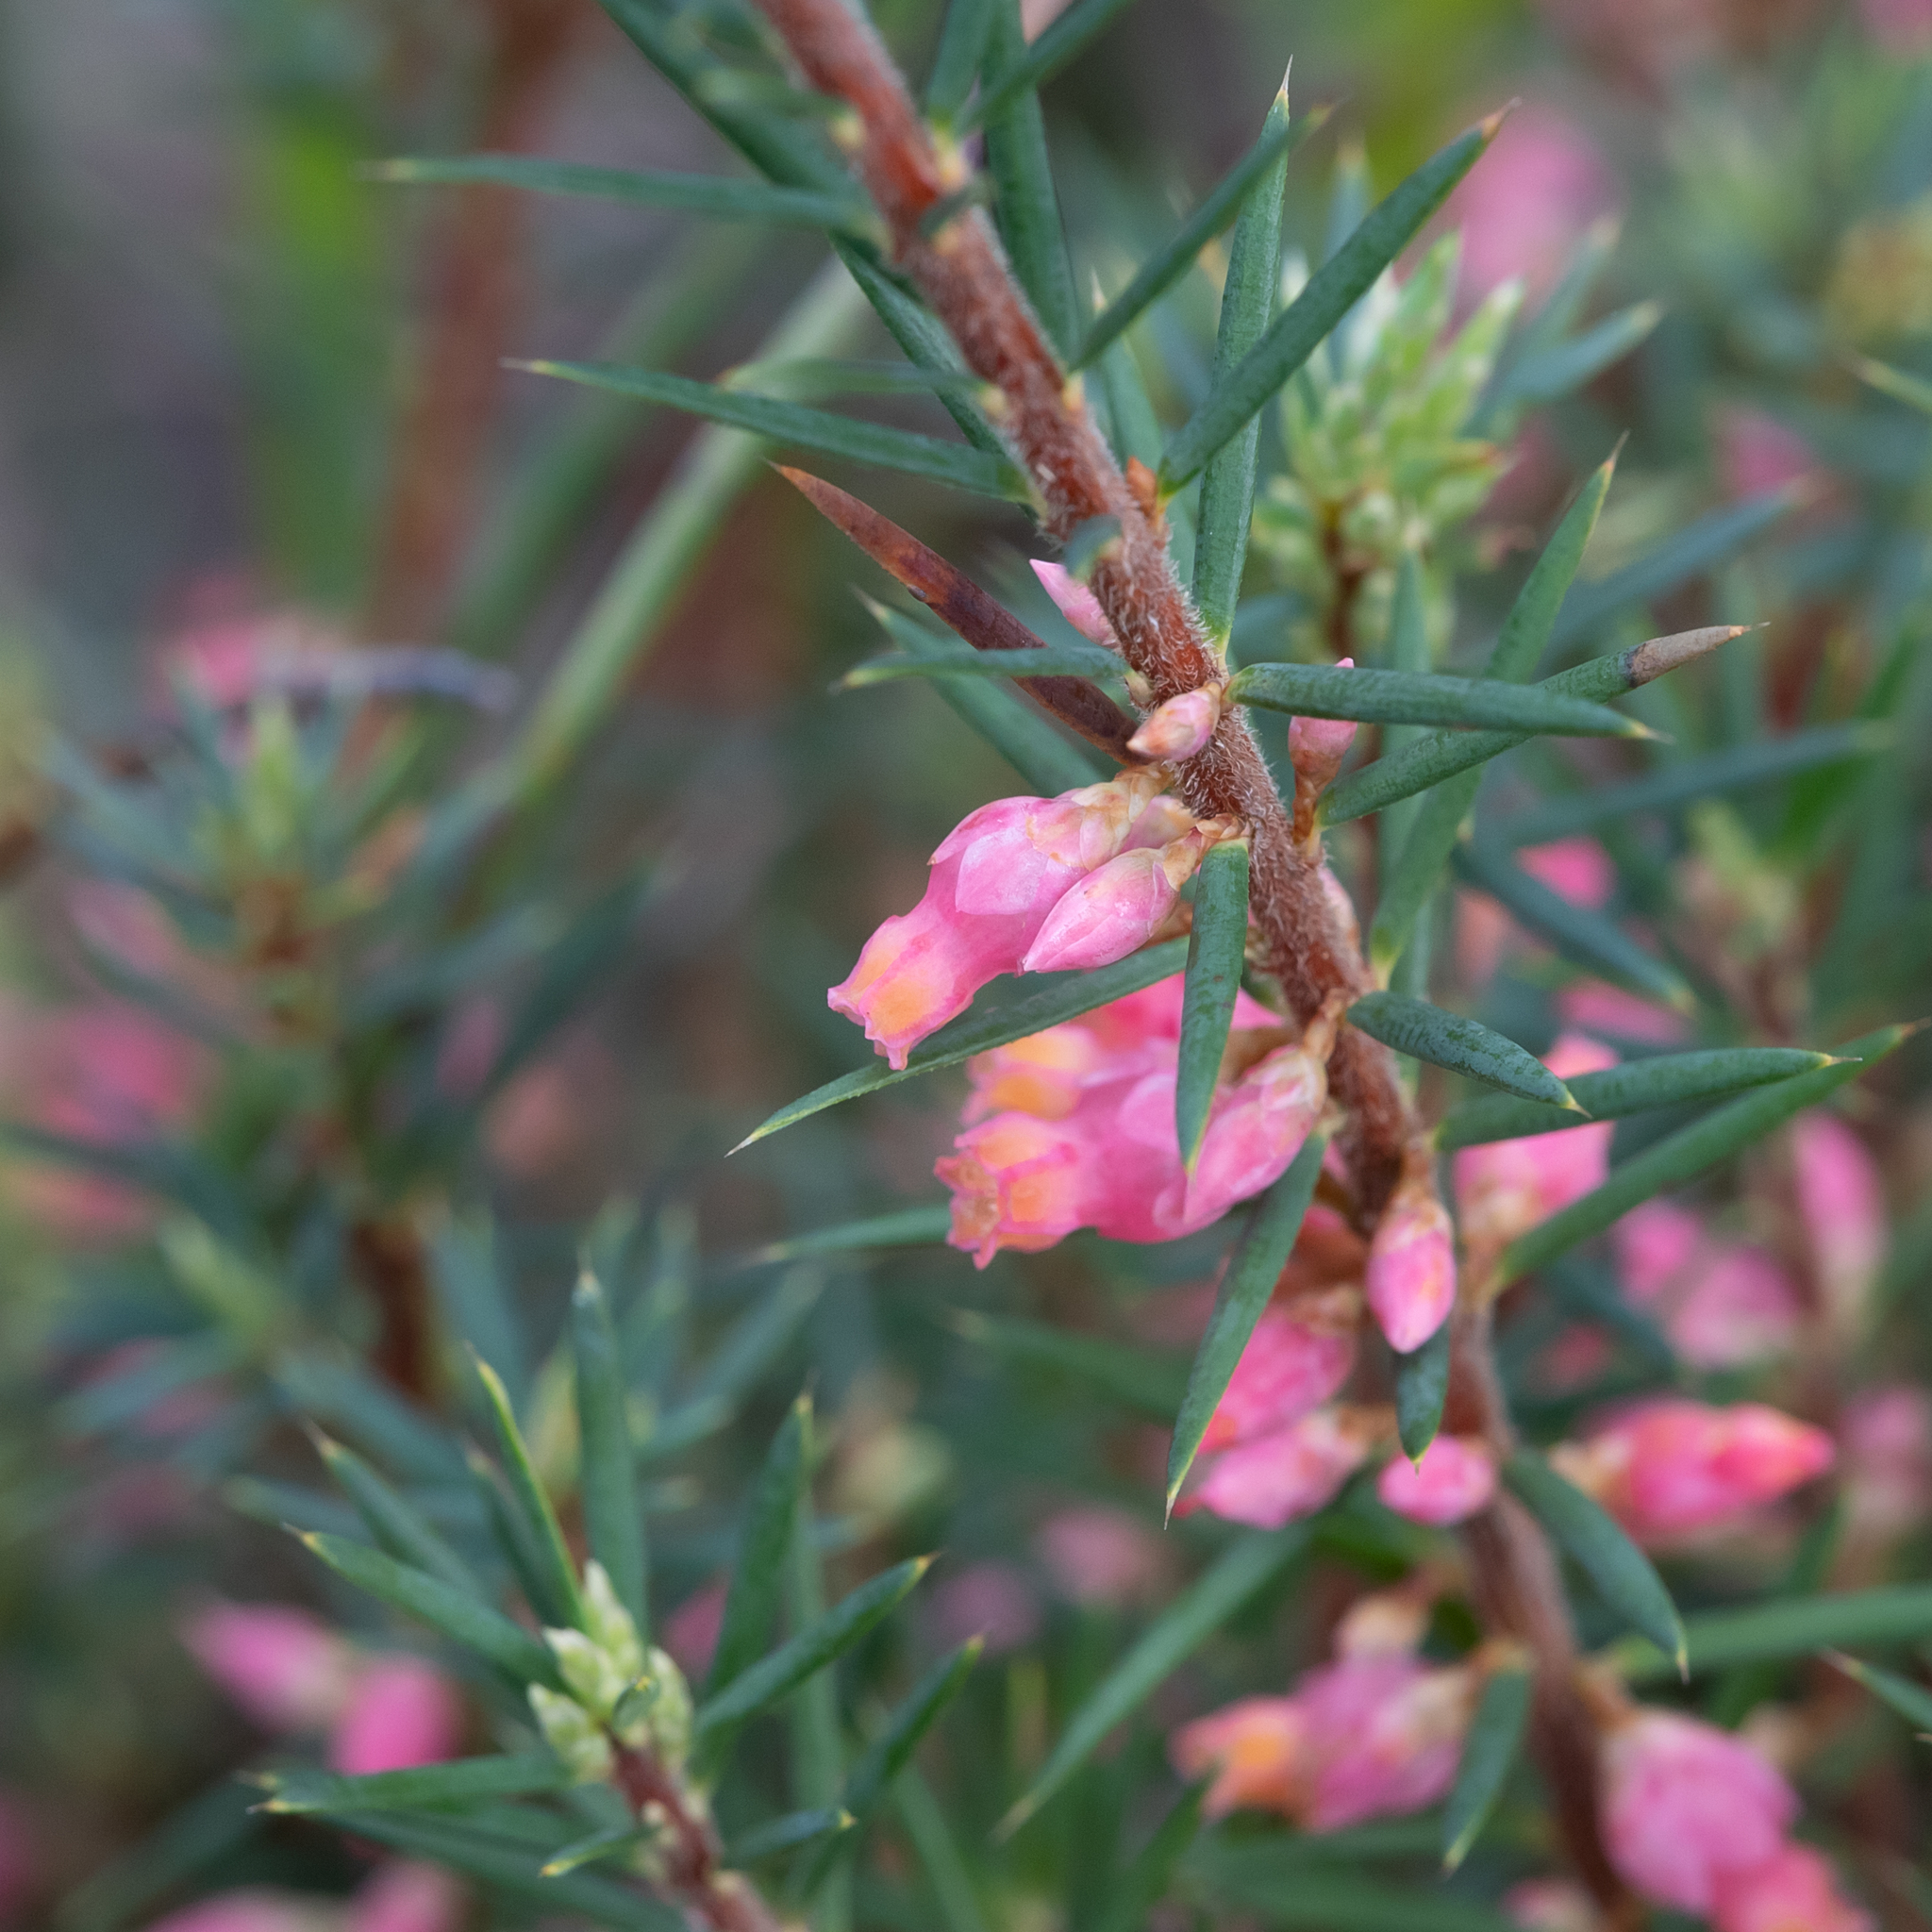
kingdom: Plantae
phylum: Tracheophyta
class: Magnoliopsida
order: Ericales
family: Ericaceae
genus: Brachyloma
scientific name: Brachyloma ericoides
